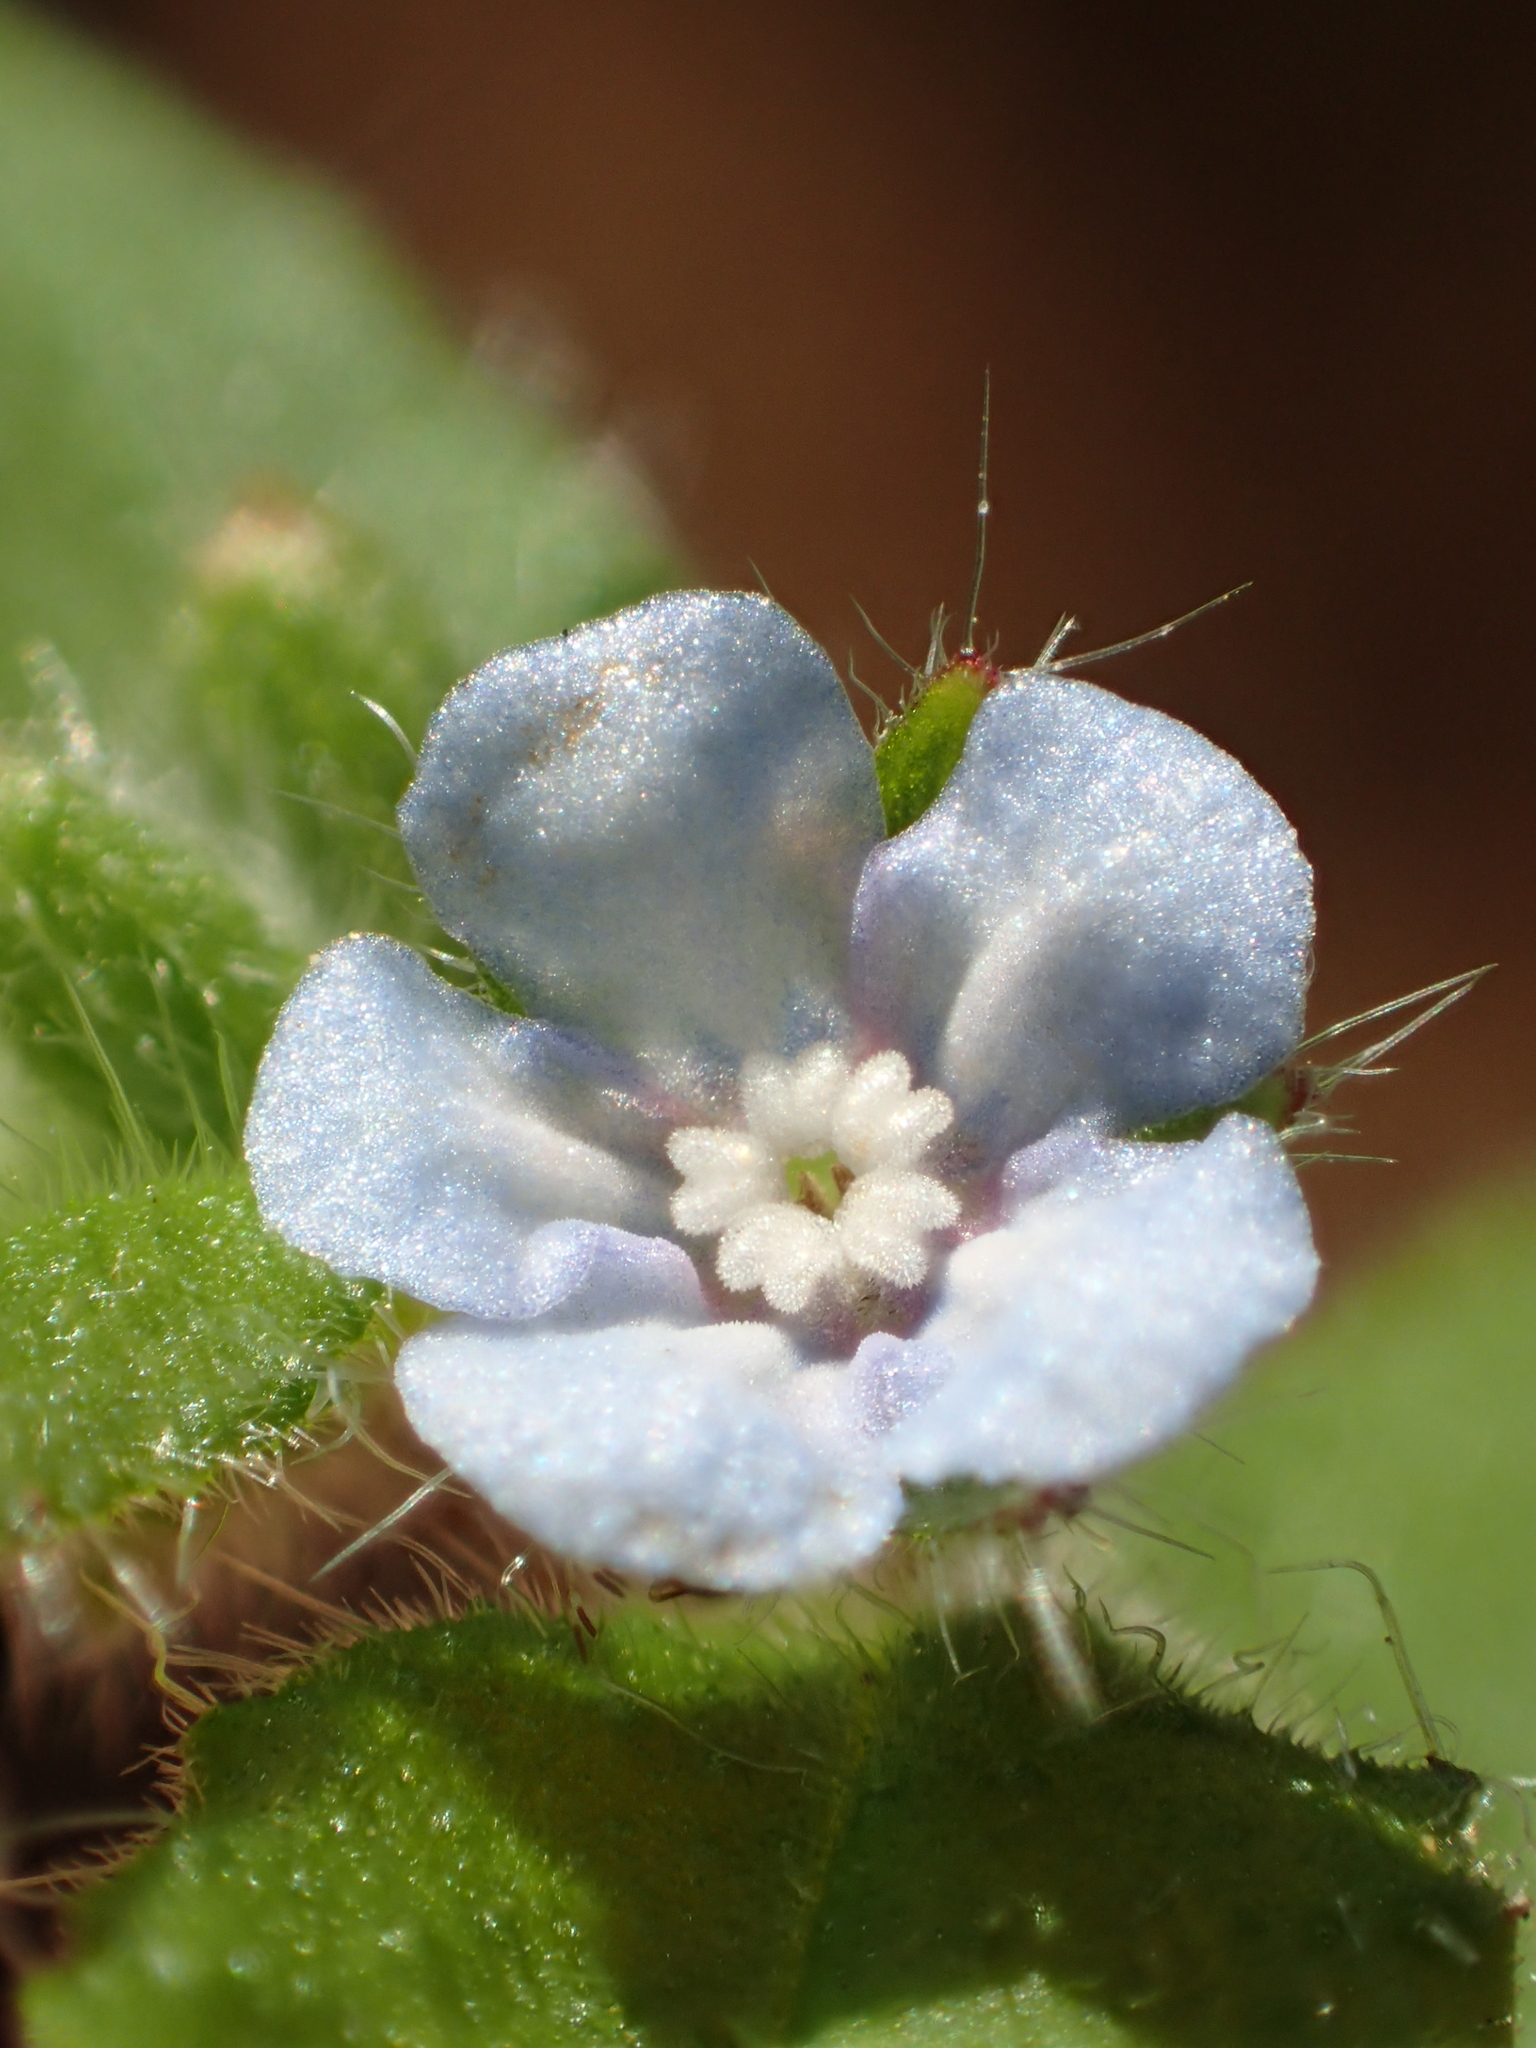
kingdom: Plantae
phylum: Tracheophyta
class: Magnoliopsida
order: Boraginales
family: Boraginaceae
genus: Thyrocarpus
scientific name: Thyrocarpus sampsonii
